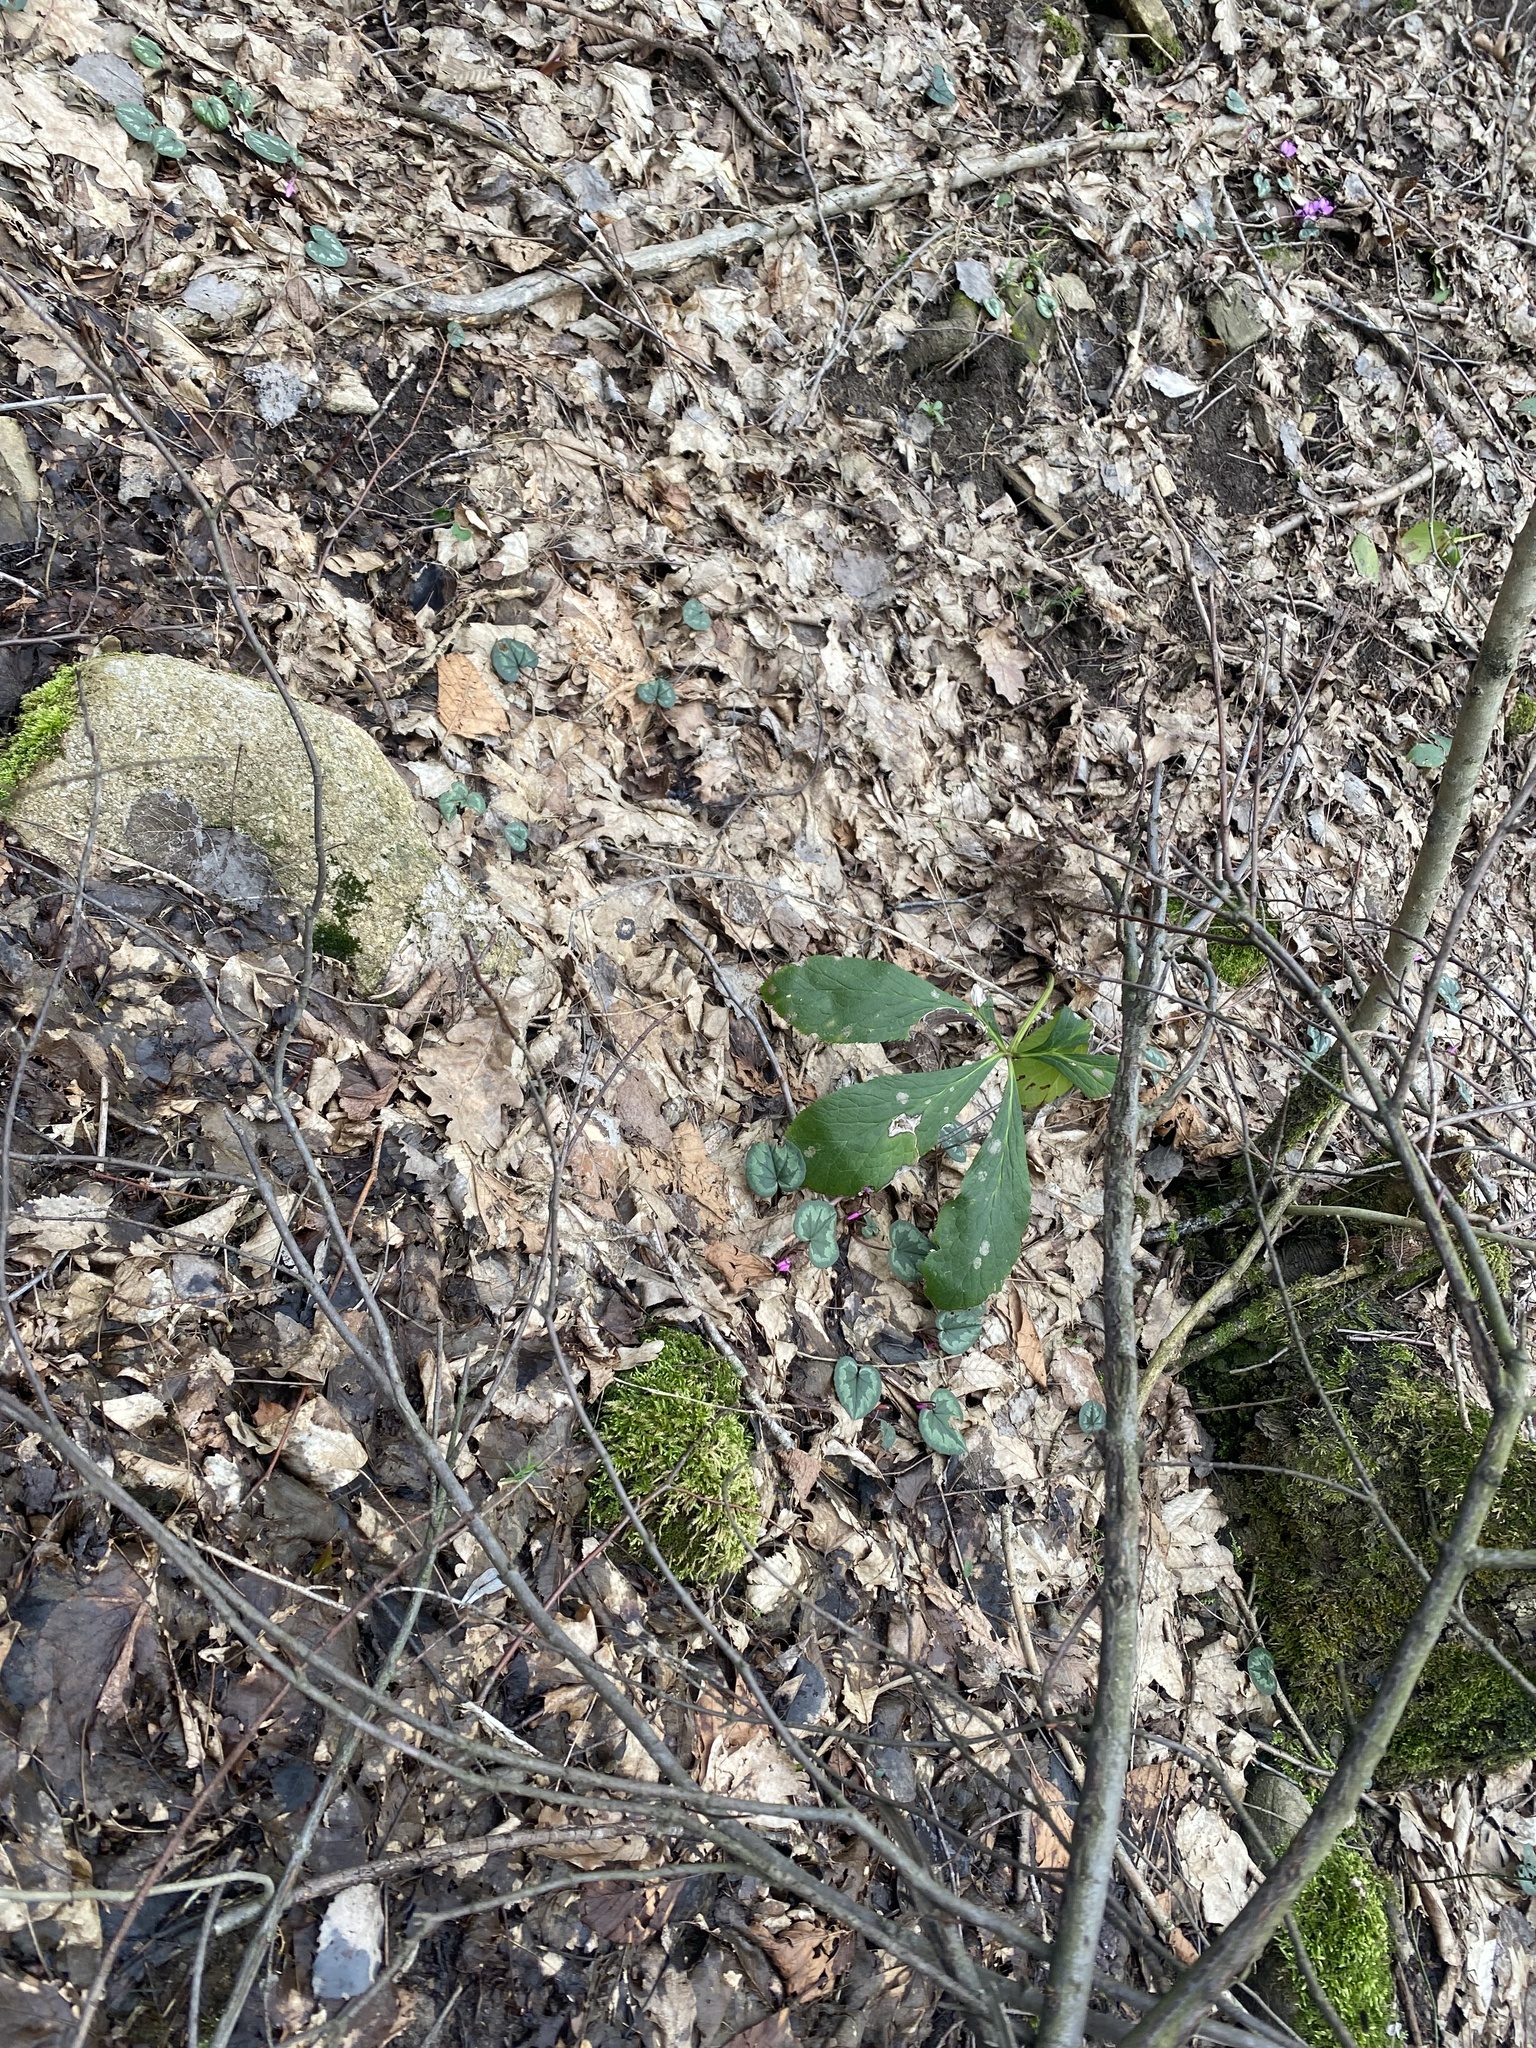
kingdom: Plantae
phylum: Tracheophyta
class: Magnoliopsida
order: Ranunculales
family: Ranunculaceae
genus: Helleborus
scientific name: Helleborus orientalis
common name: Lenten-rose
